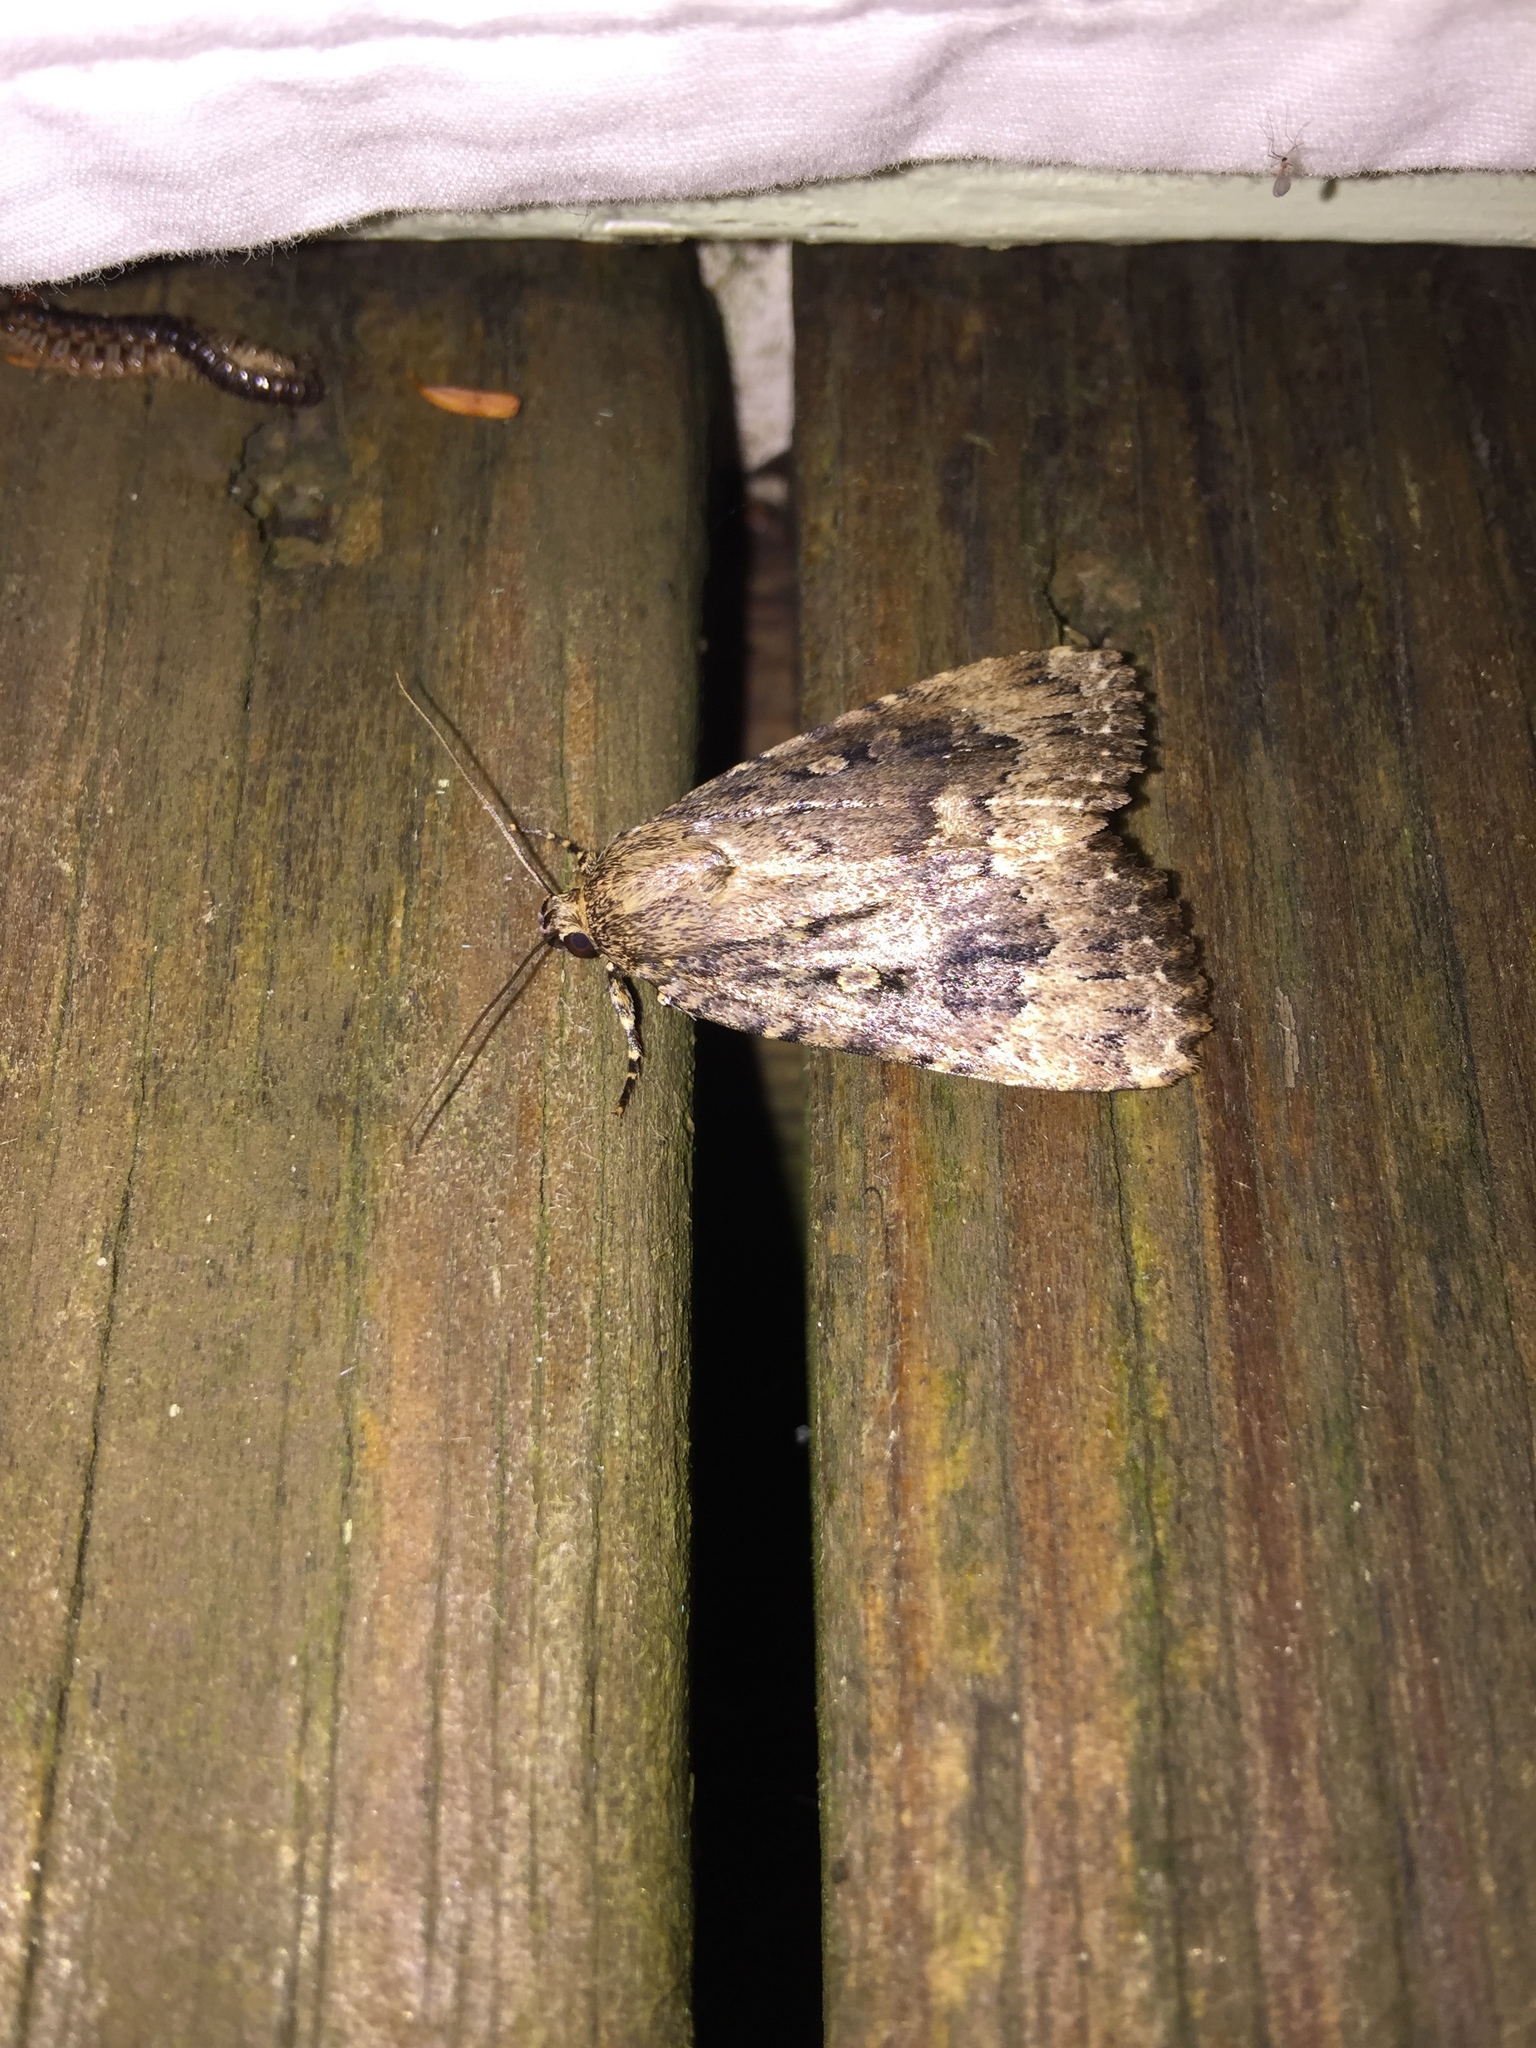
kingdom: Animalia
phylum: Arthropoda
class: Insecta
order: Lepidoptera
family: Noctuidae
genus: Amphipyra
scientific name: Amphipyra pyramidoides
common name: American copper underwing
